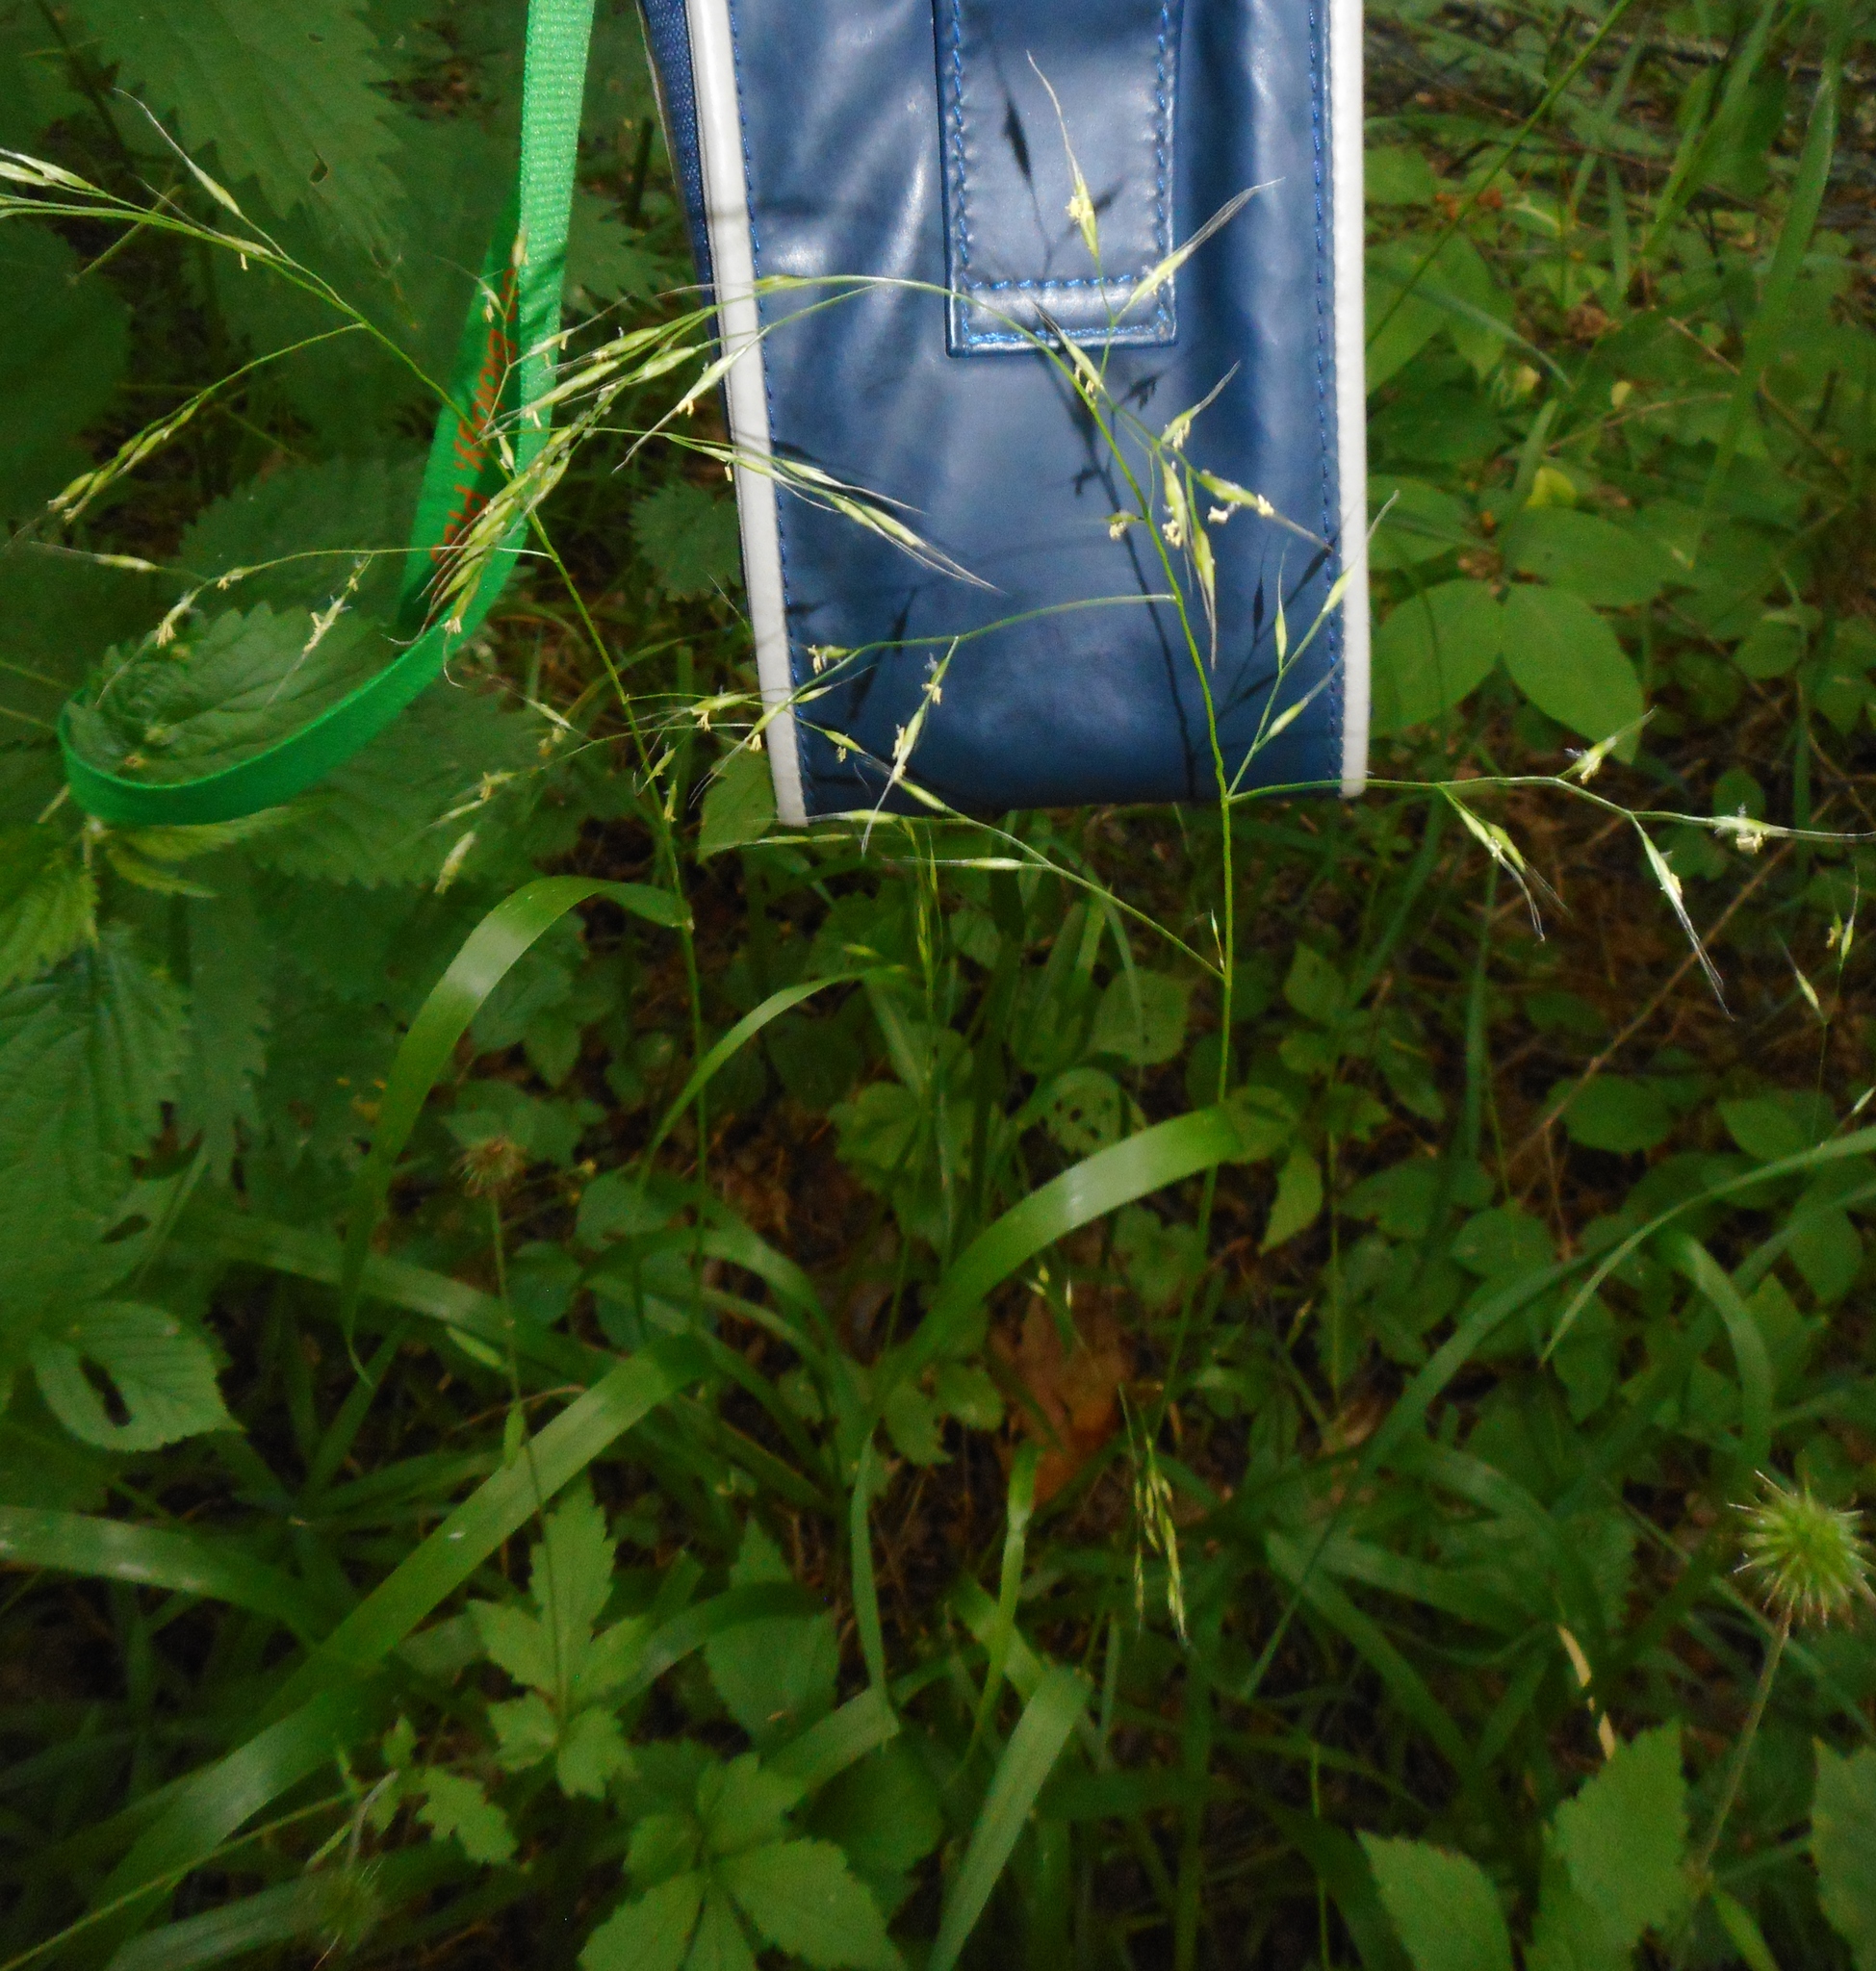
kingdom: Plantae
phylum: Tracheophyta
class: Liliopsida
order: Poales
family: Poaceae
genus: Lolium
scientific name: Lolium giganteum
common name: Giant fescue
